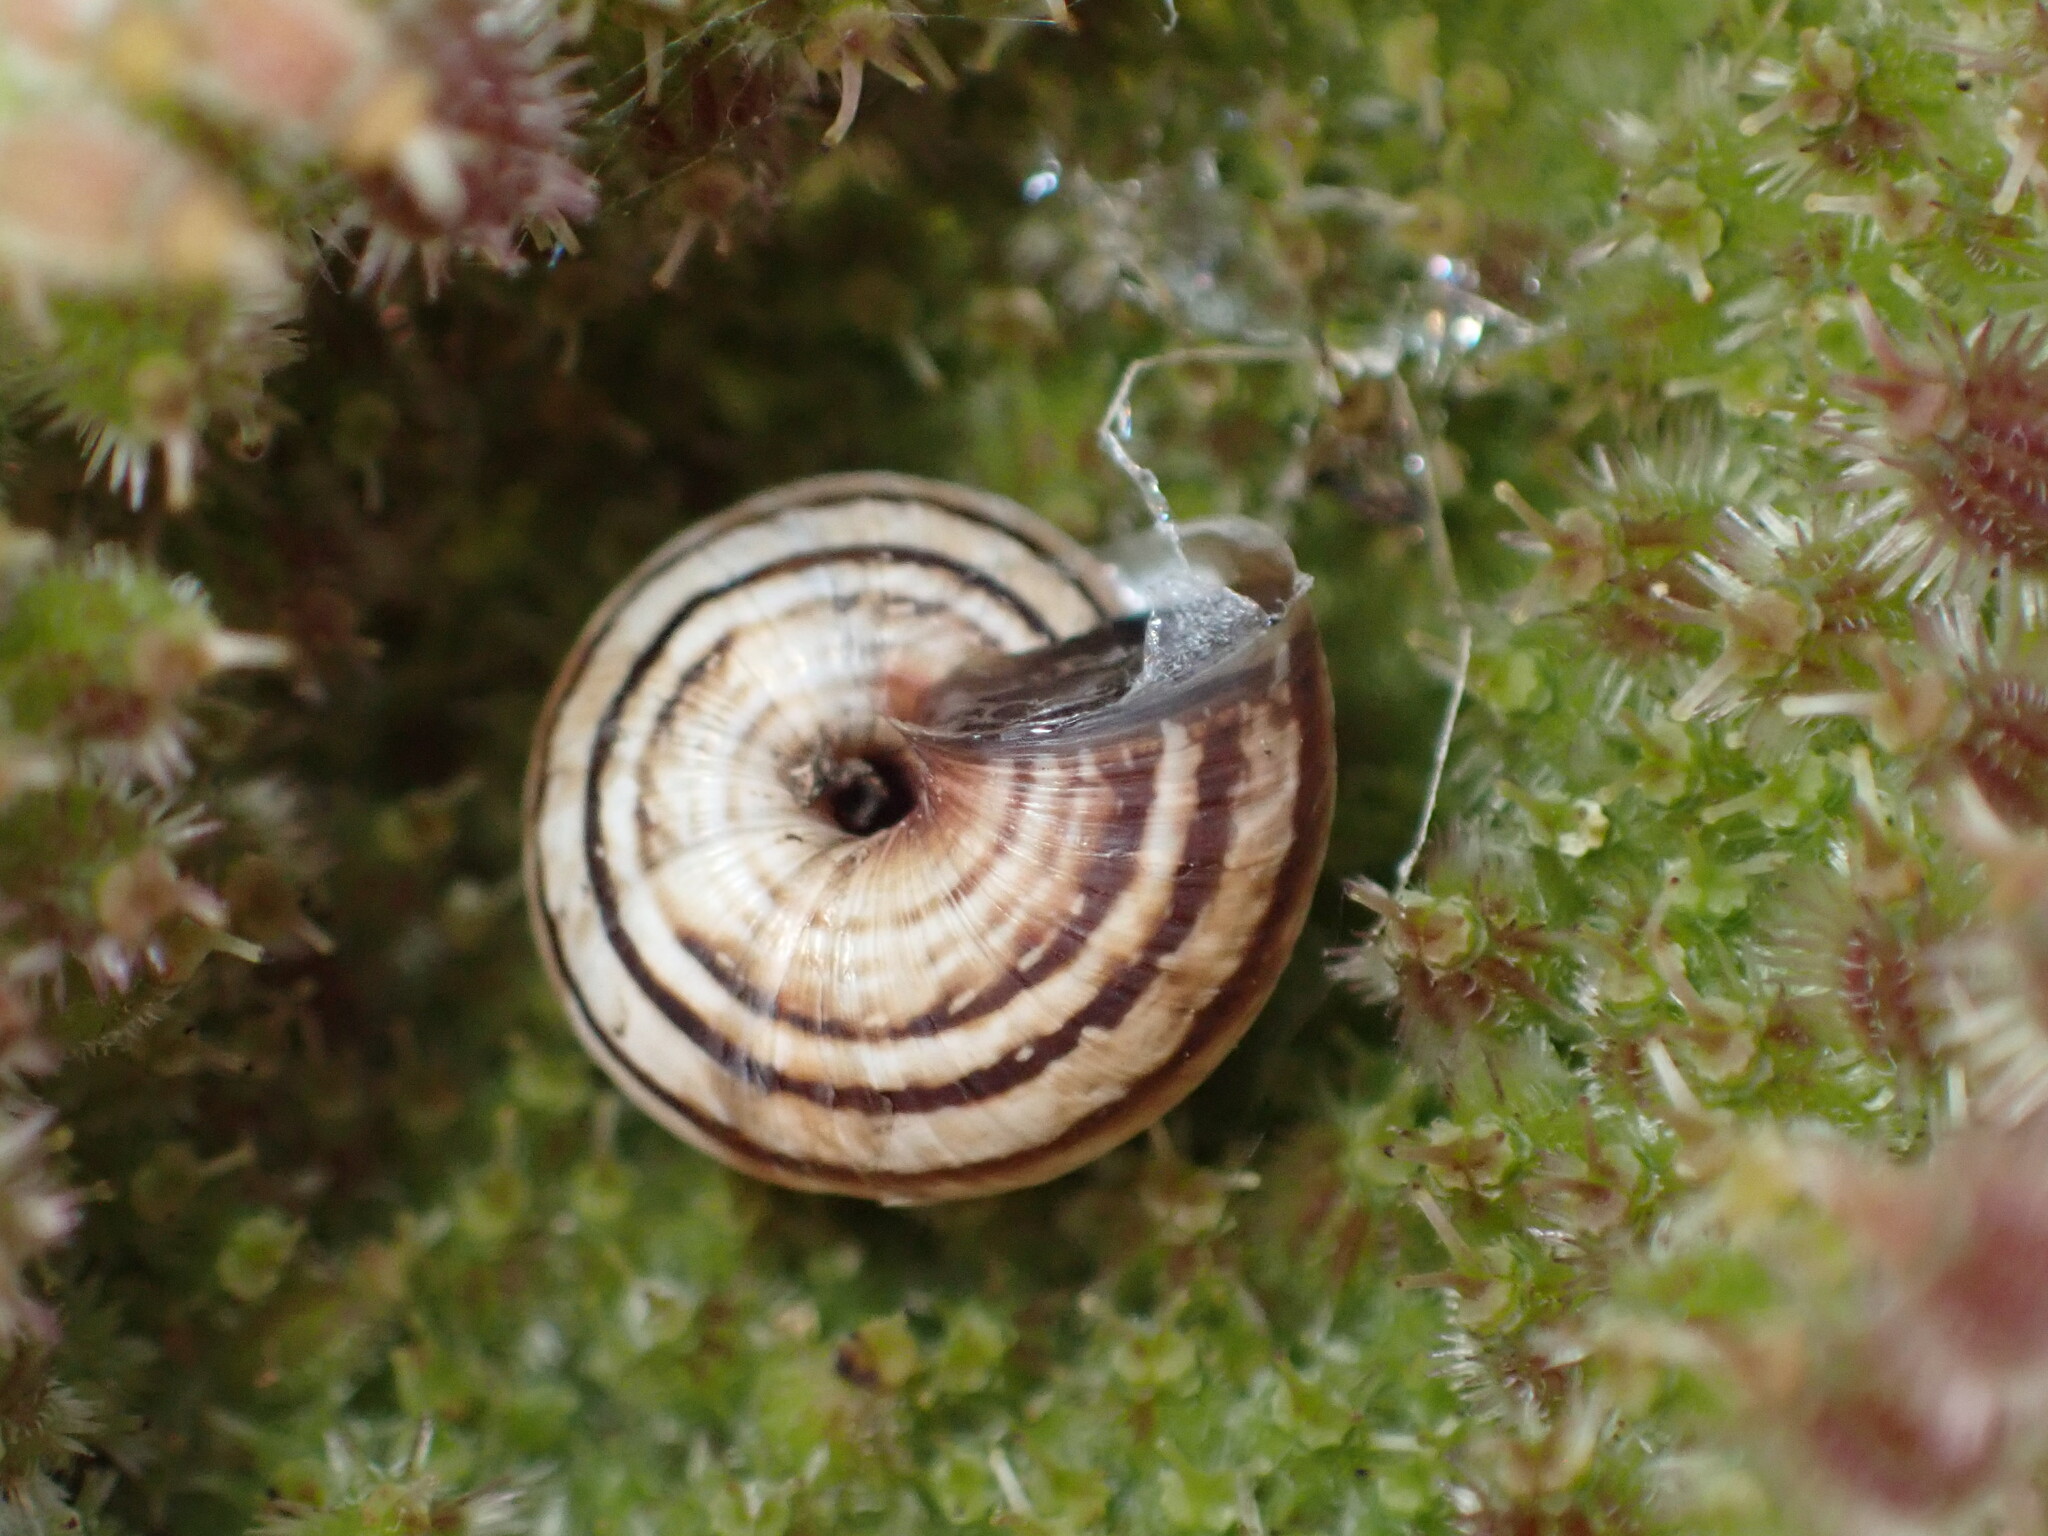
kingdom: Animalia
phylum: Mollusca
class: Gastropoda
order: Stylommatophora
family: Geomitridae
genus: Cernuella
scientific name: Cernuella virgata
